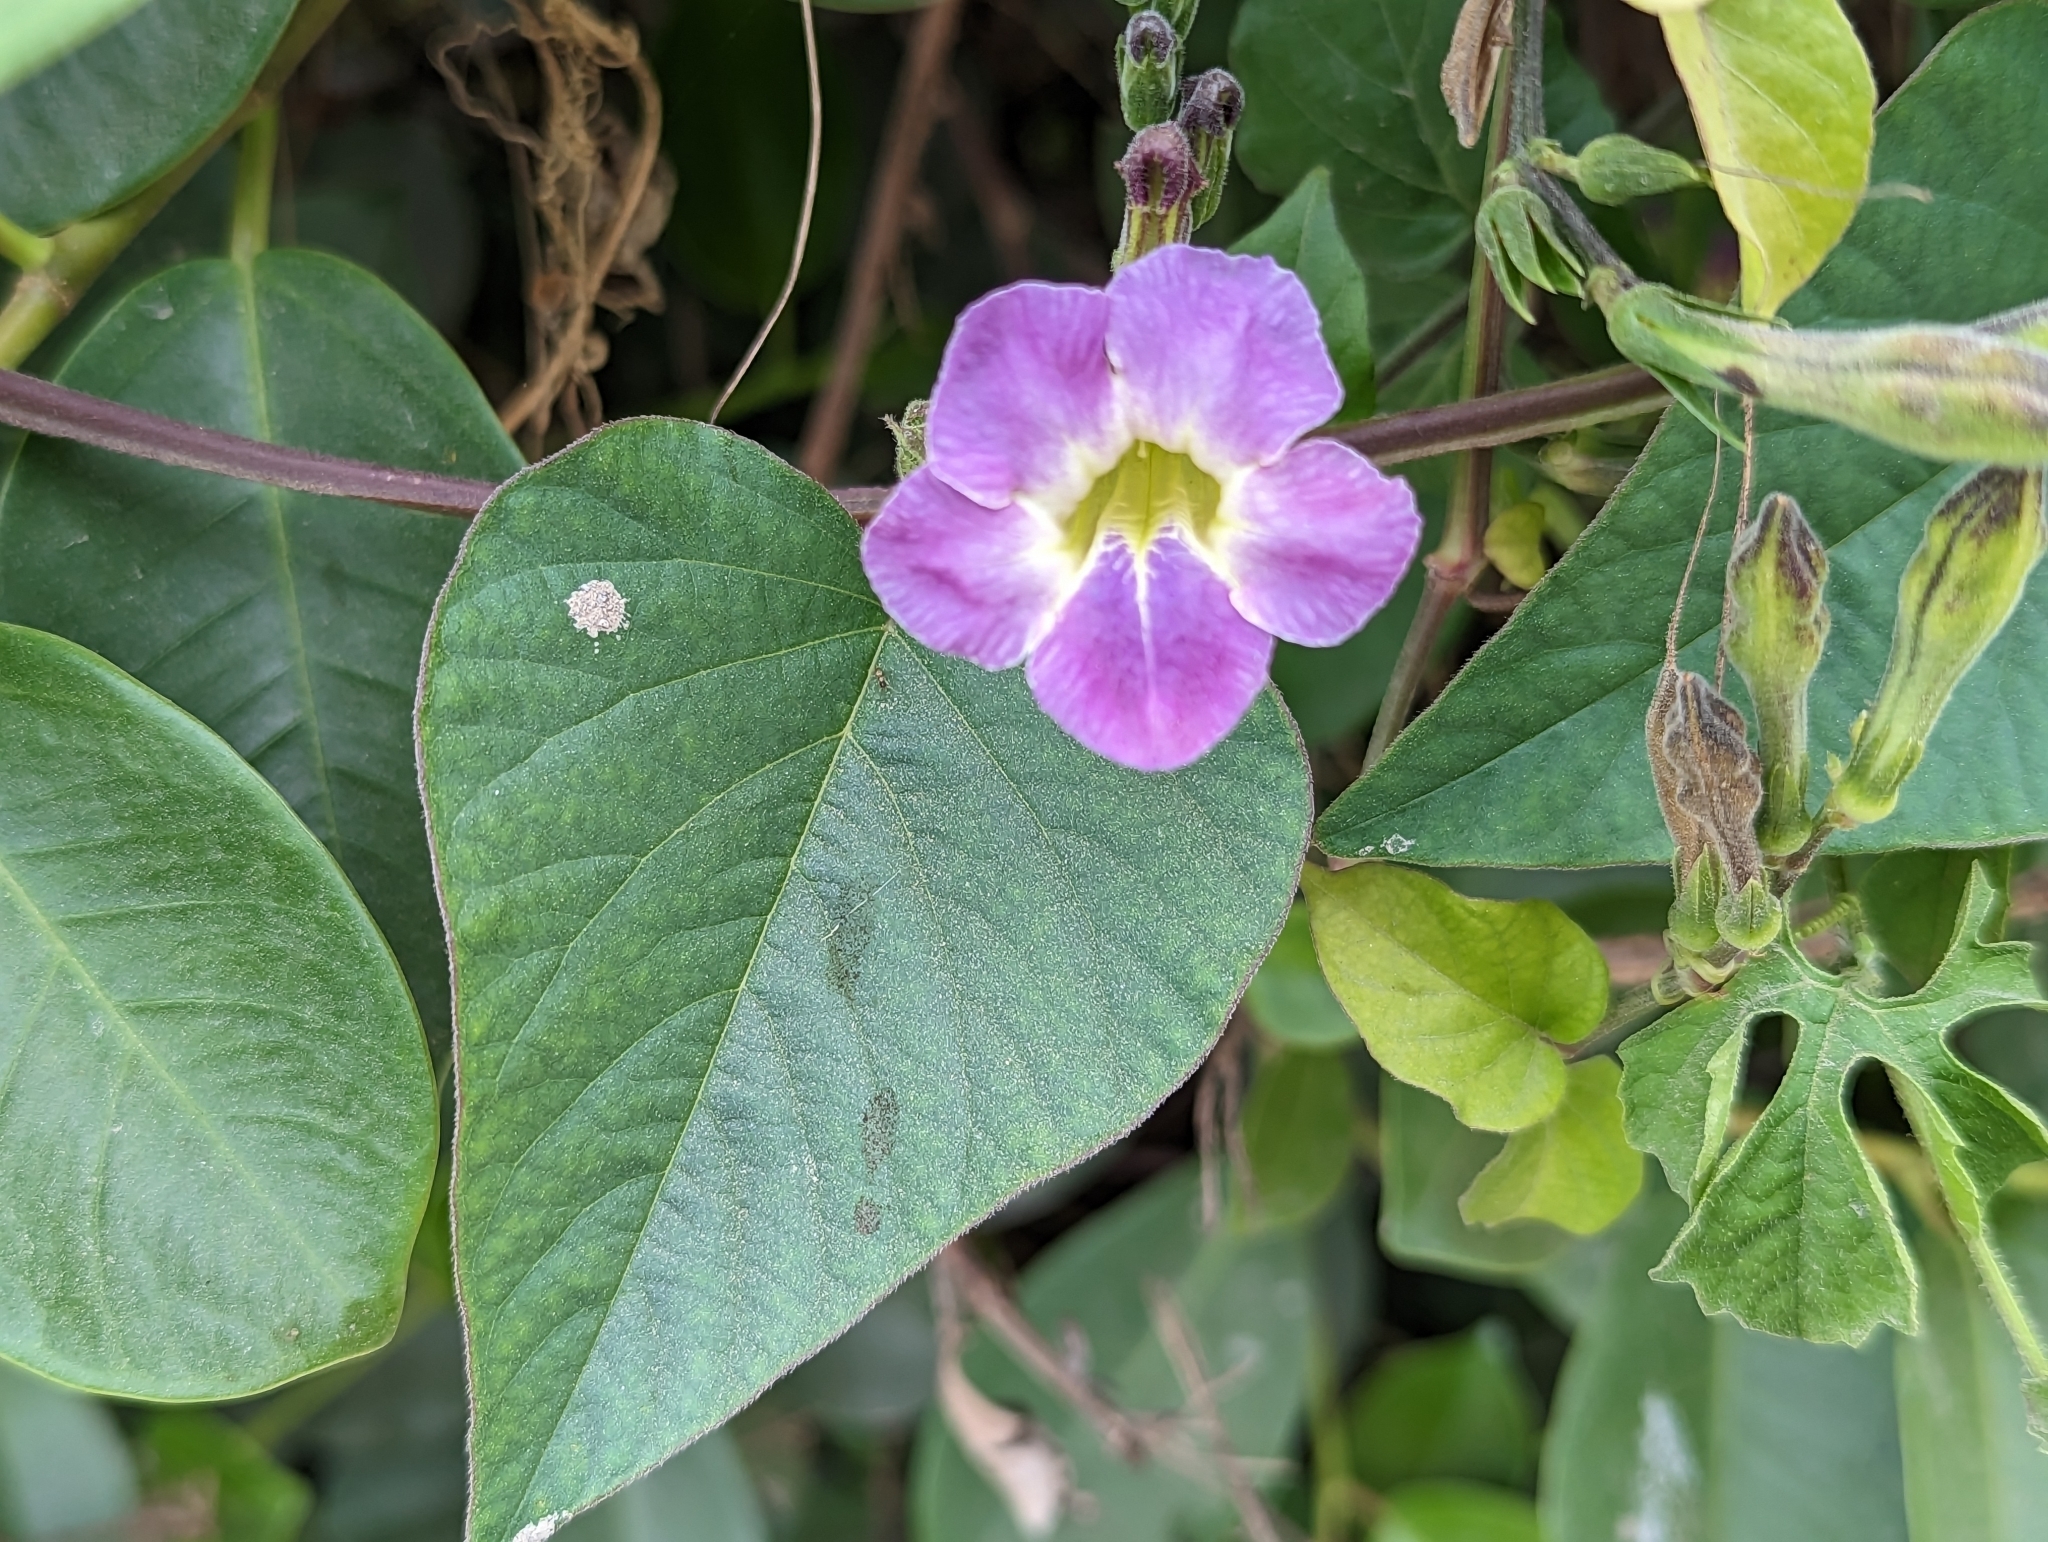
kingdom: Plantae
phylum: Tracheophyta
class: Magnoliopsida
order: Lamiales
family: Acanthaceae
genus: Asystasia
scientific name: Asystasia gangetica
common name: Chinese violet
